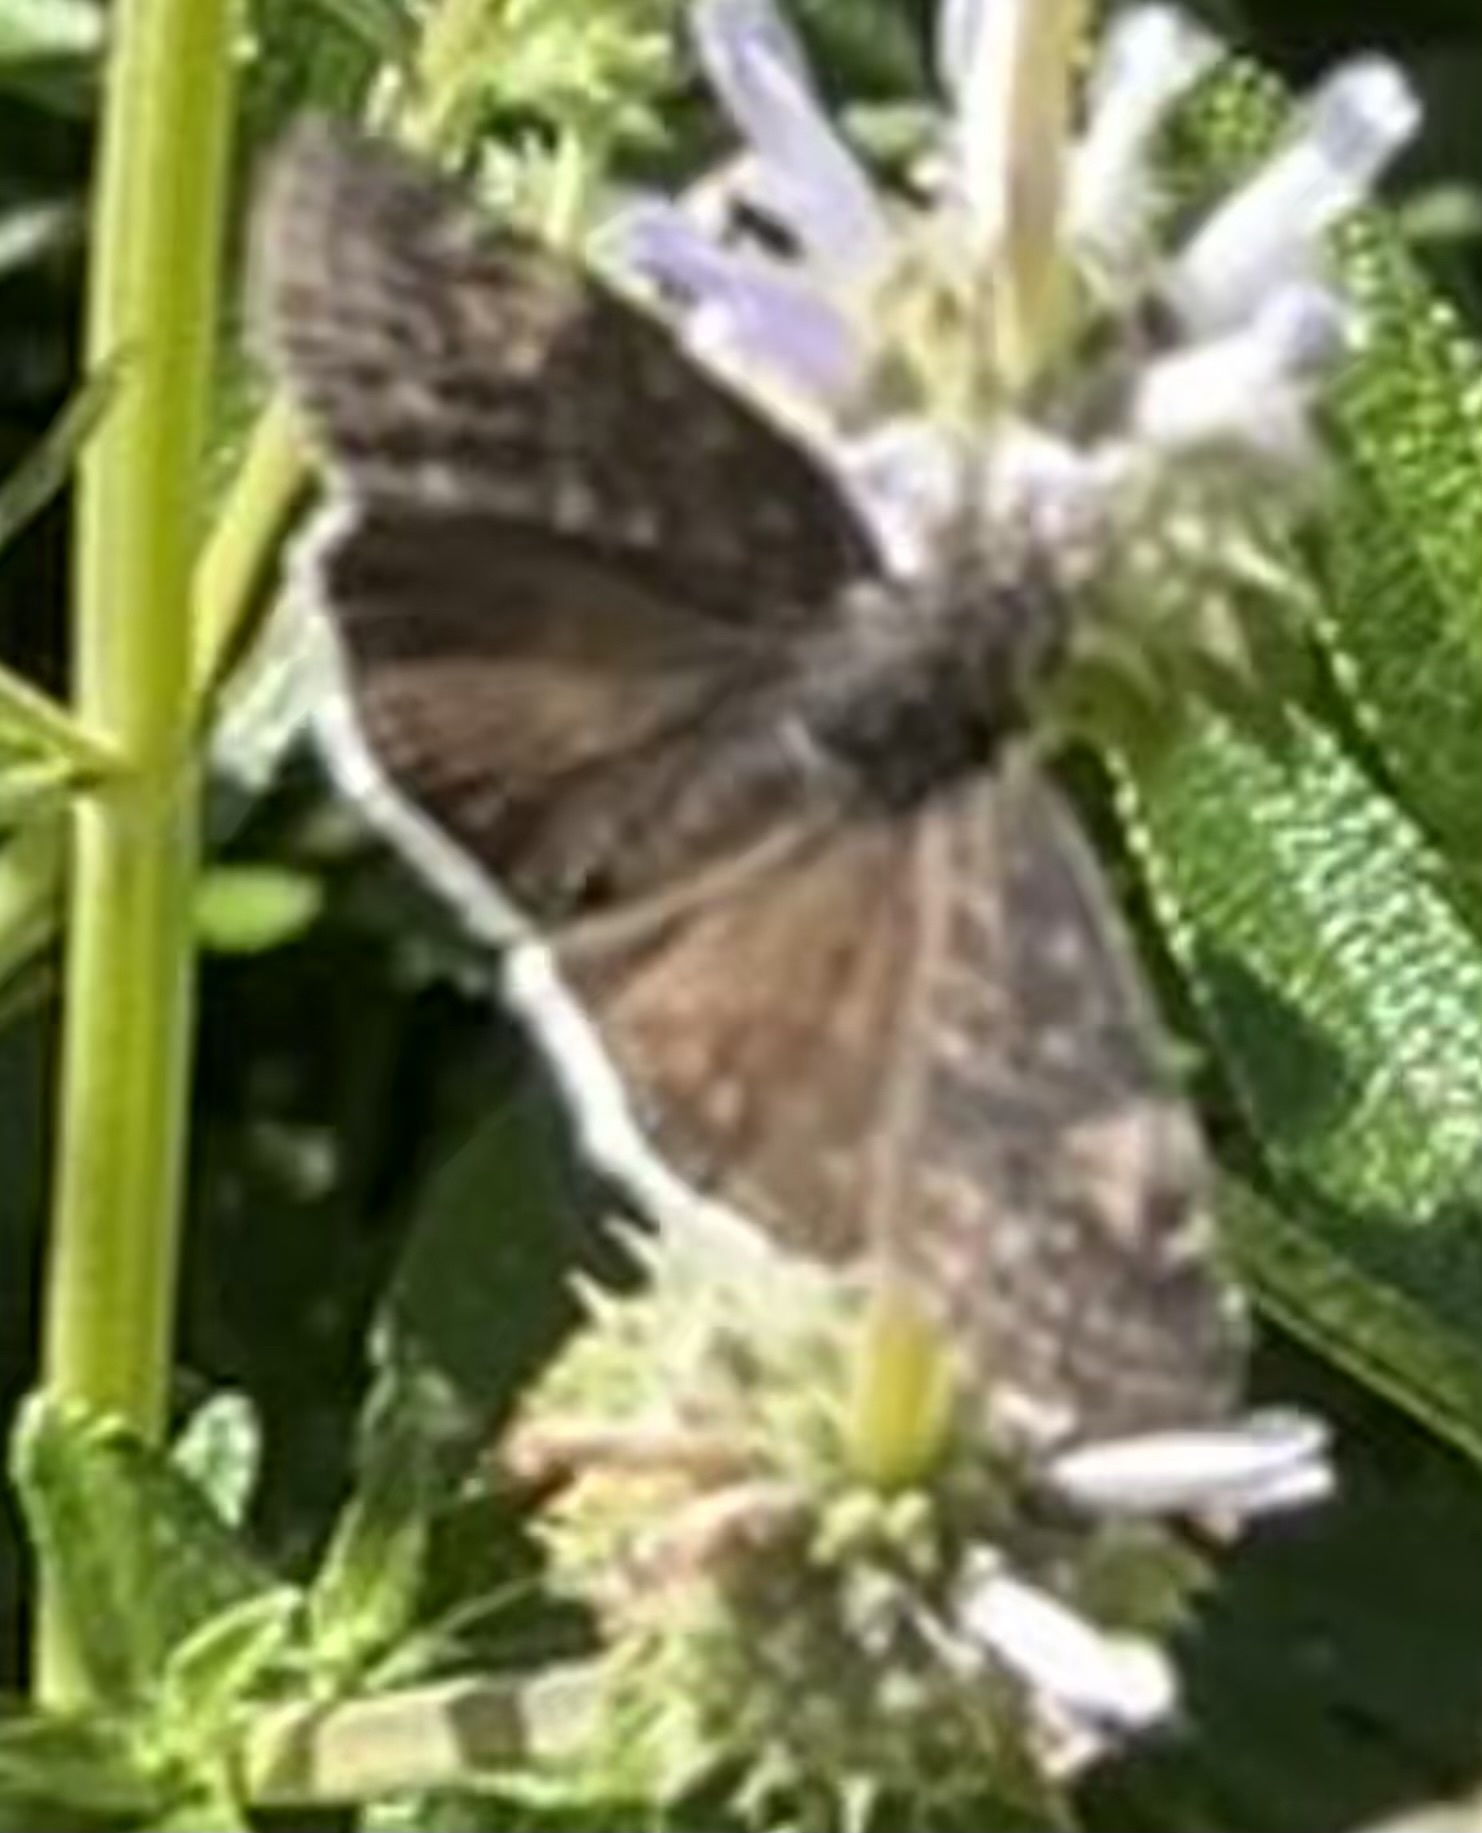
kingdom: Animalia
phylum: Arthropoda
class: Insecta
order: Lepidoptera
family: Hesperiidae
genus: Erynnis
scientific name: Erynnis funeralis
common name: Funereal duskywing
